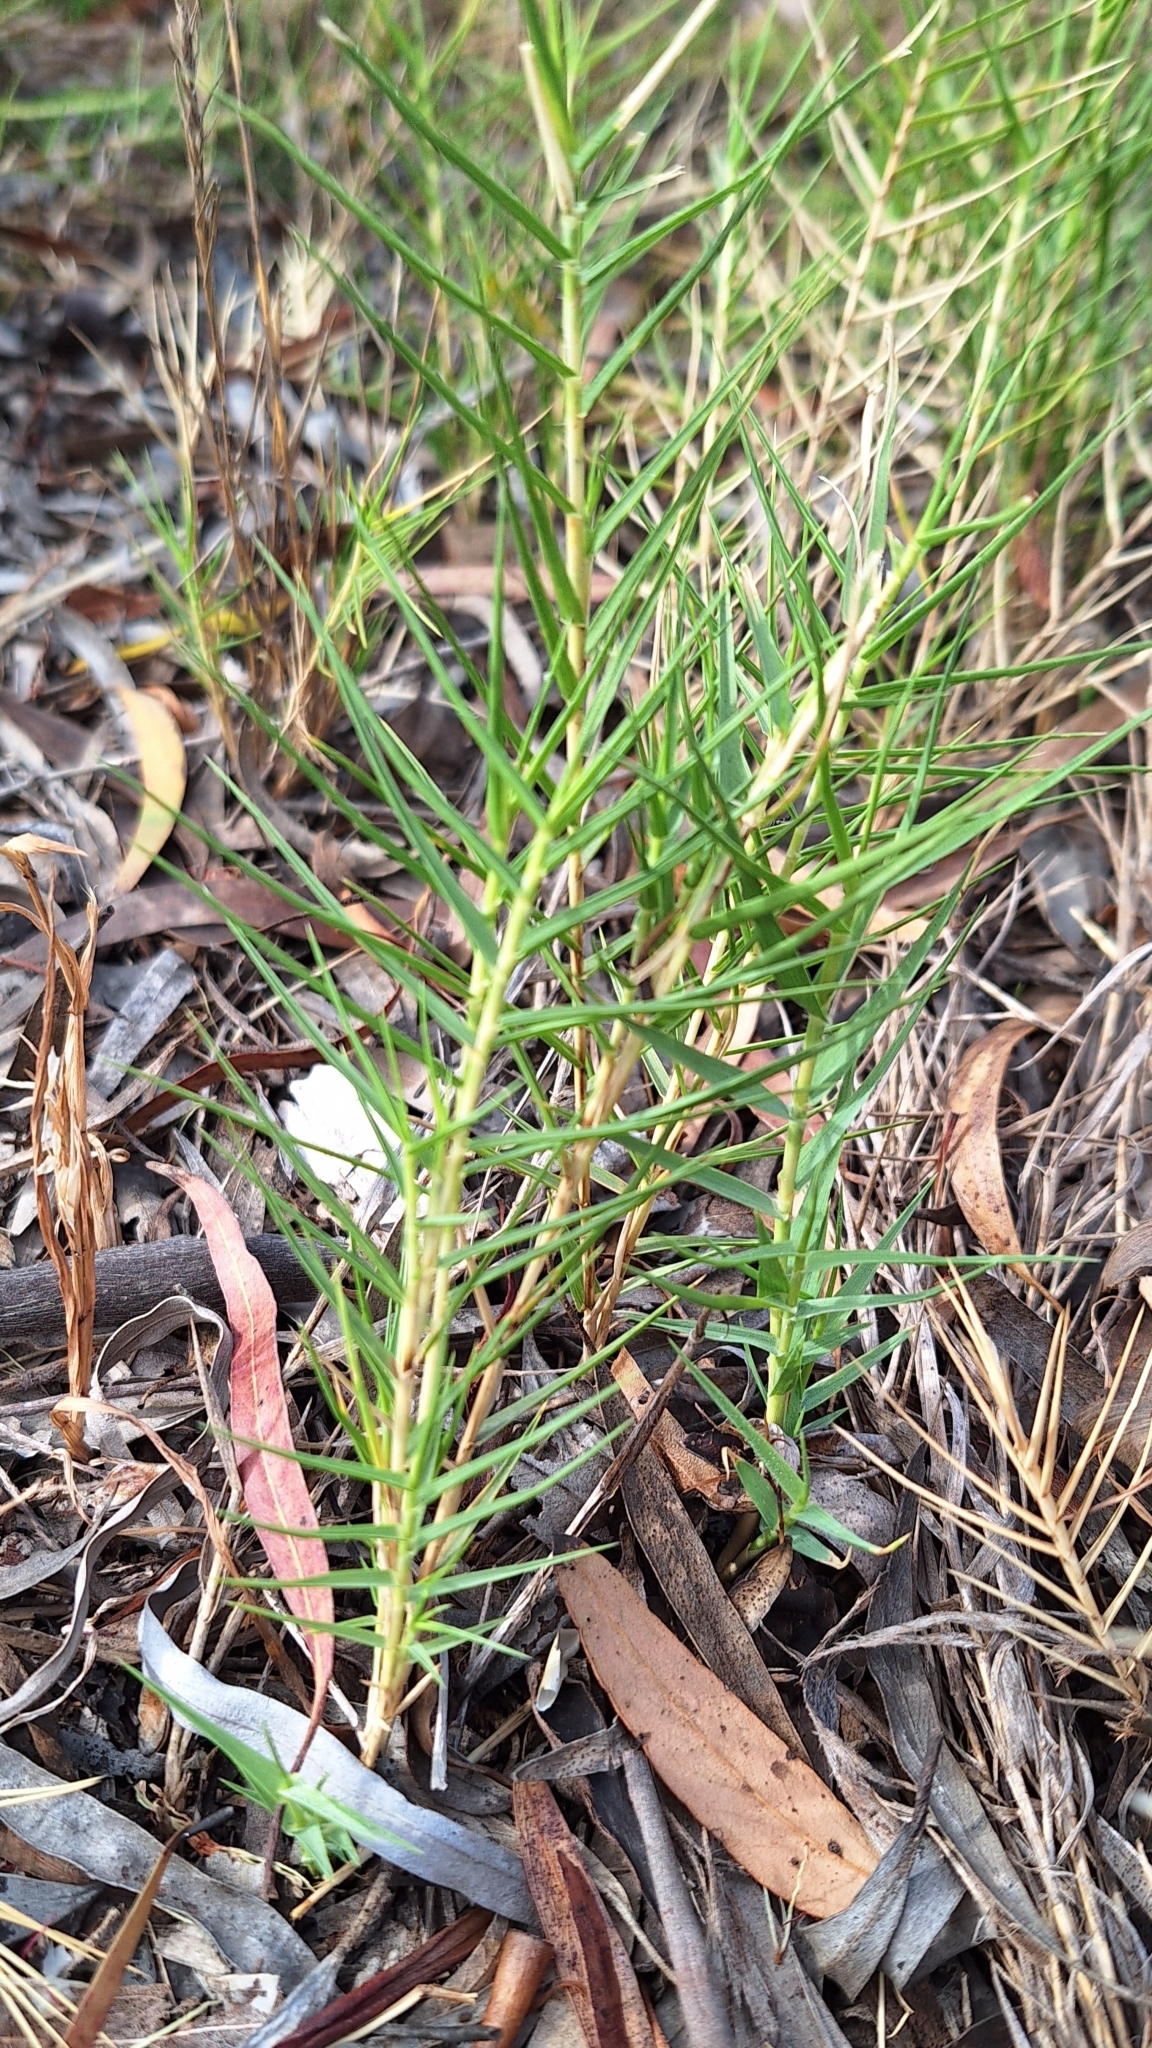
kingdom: Plantae
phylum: Tracheophyta
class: Liliopsida
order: Poales
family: Poaceae
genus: Distichlis
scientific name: Distichlis distichophylla
